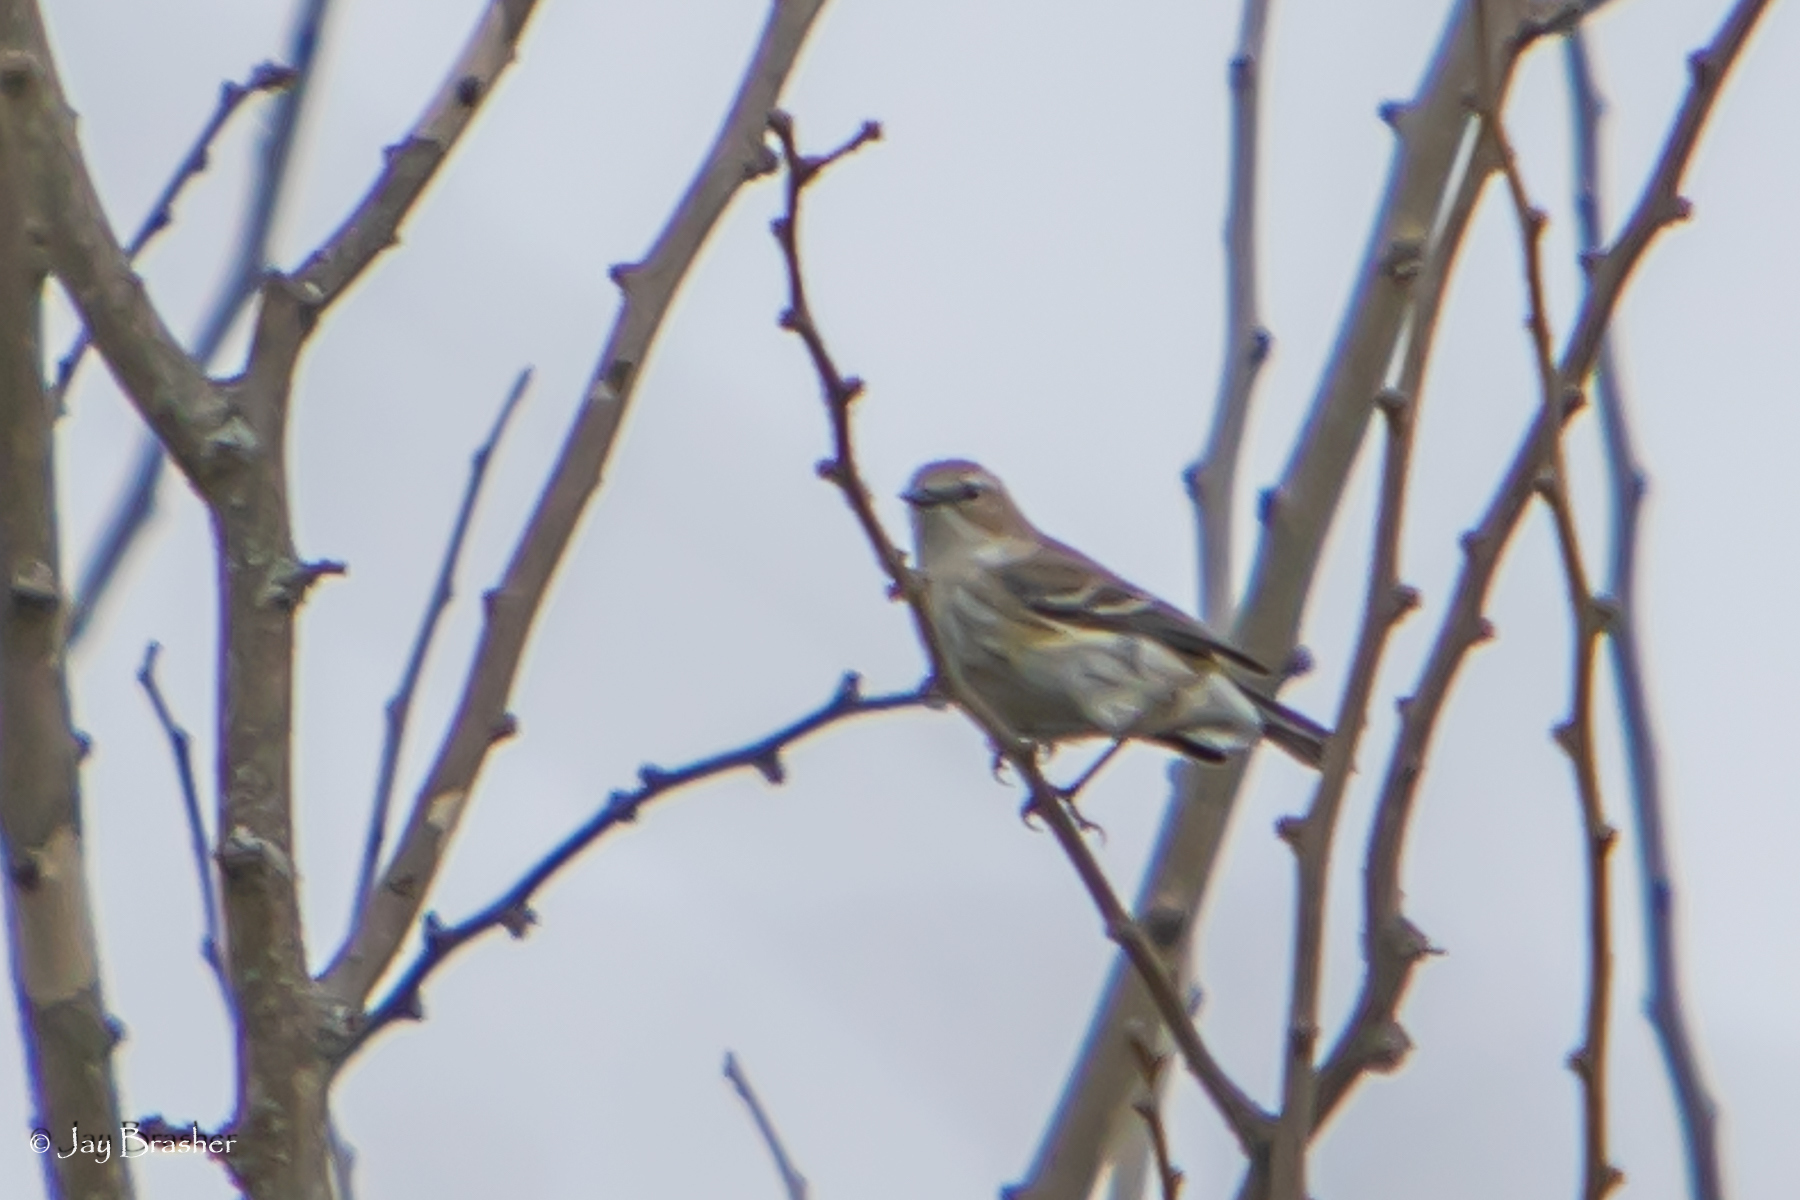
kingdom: Animalia
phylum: Chordata
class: Aves
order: Passeriformes
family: Parulidae
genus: Setophaga
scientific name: Setophaga coronata
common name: Myrtle warbler
